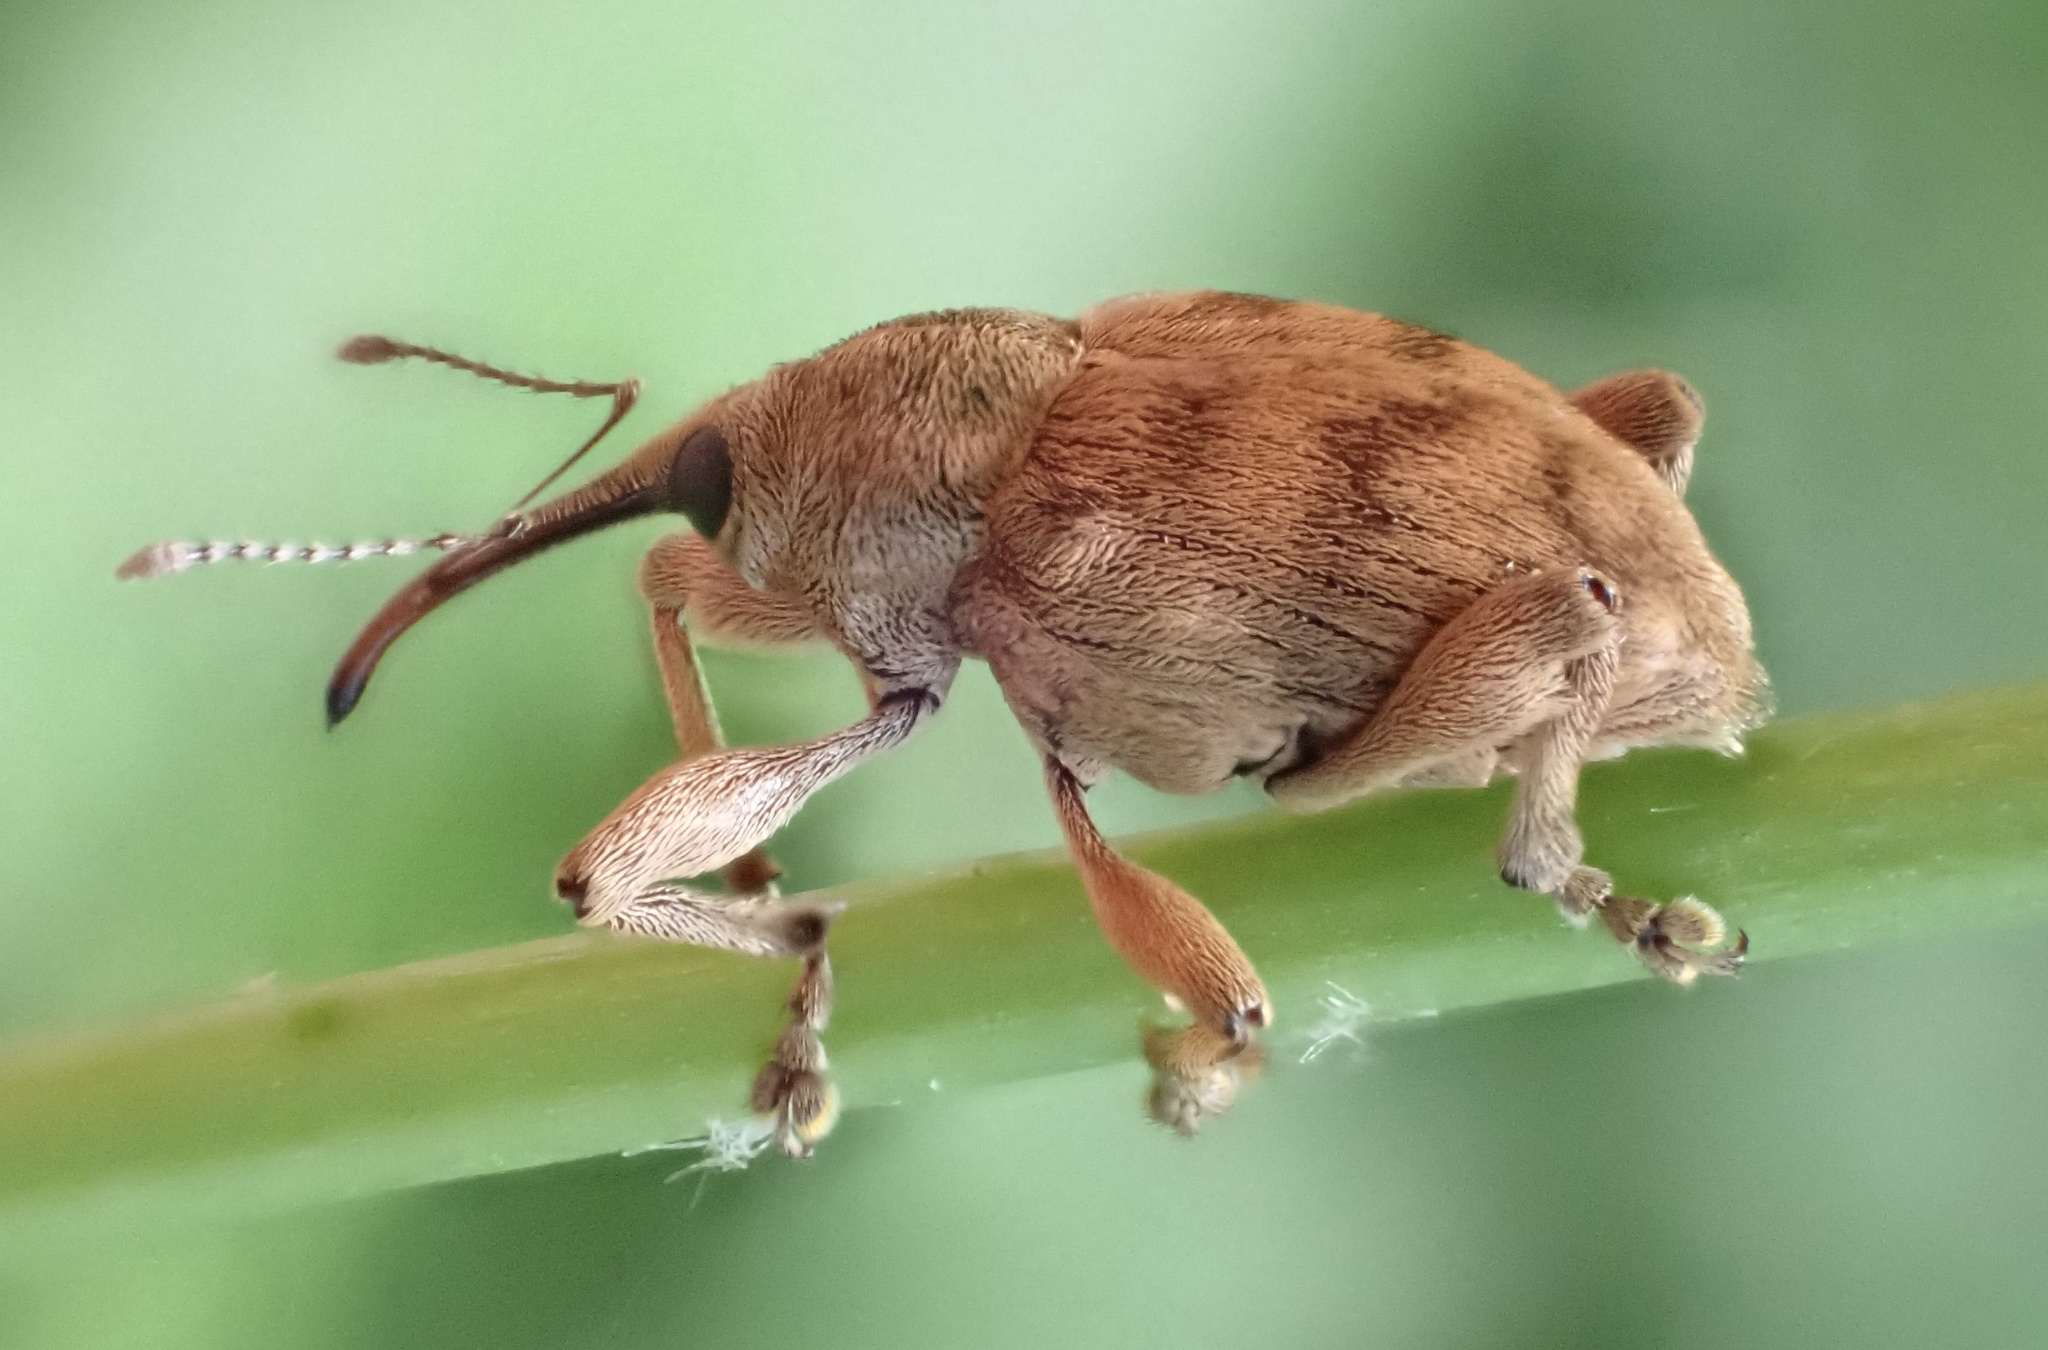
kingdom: Animalia
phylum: Arthropoda
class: Insecta
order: Coleoptera
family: Curculionidae
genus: Curculio
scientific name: Curculio venosus
